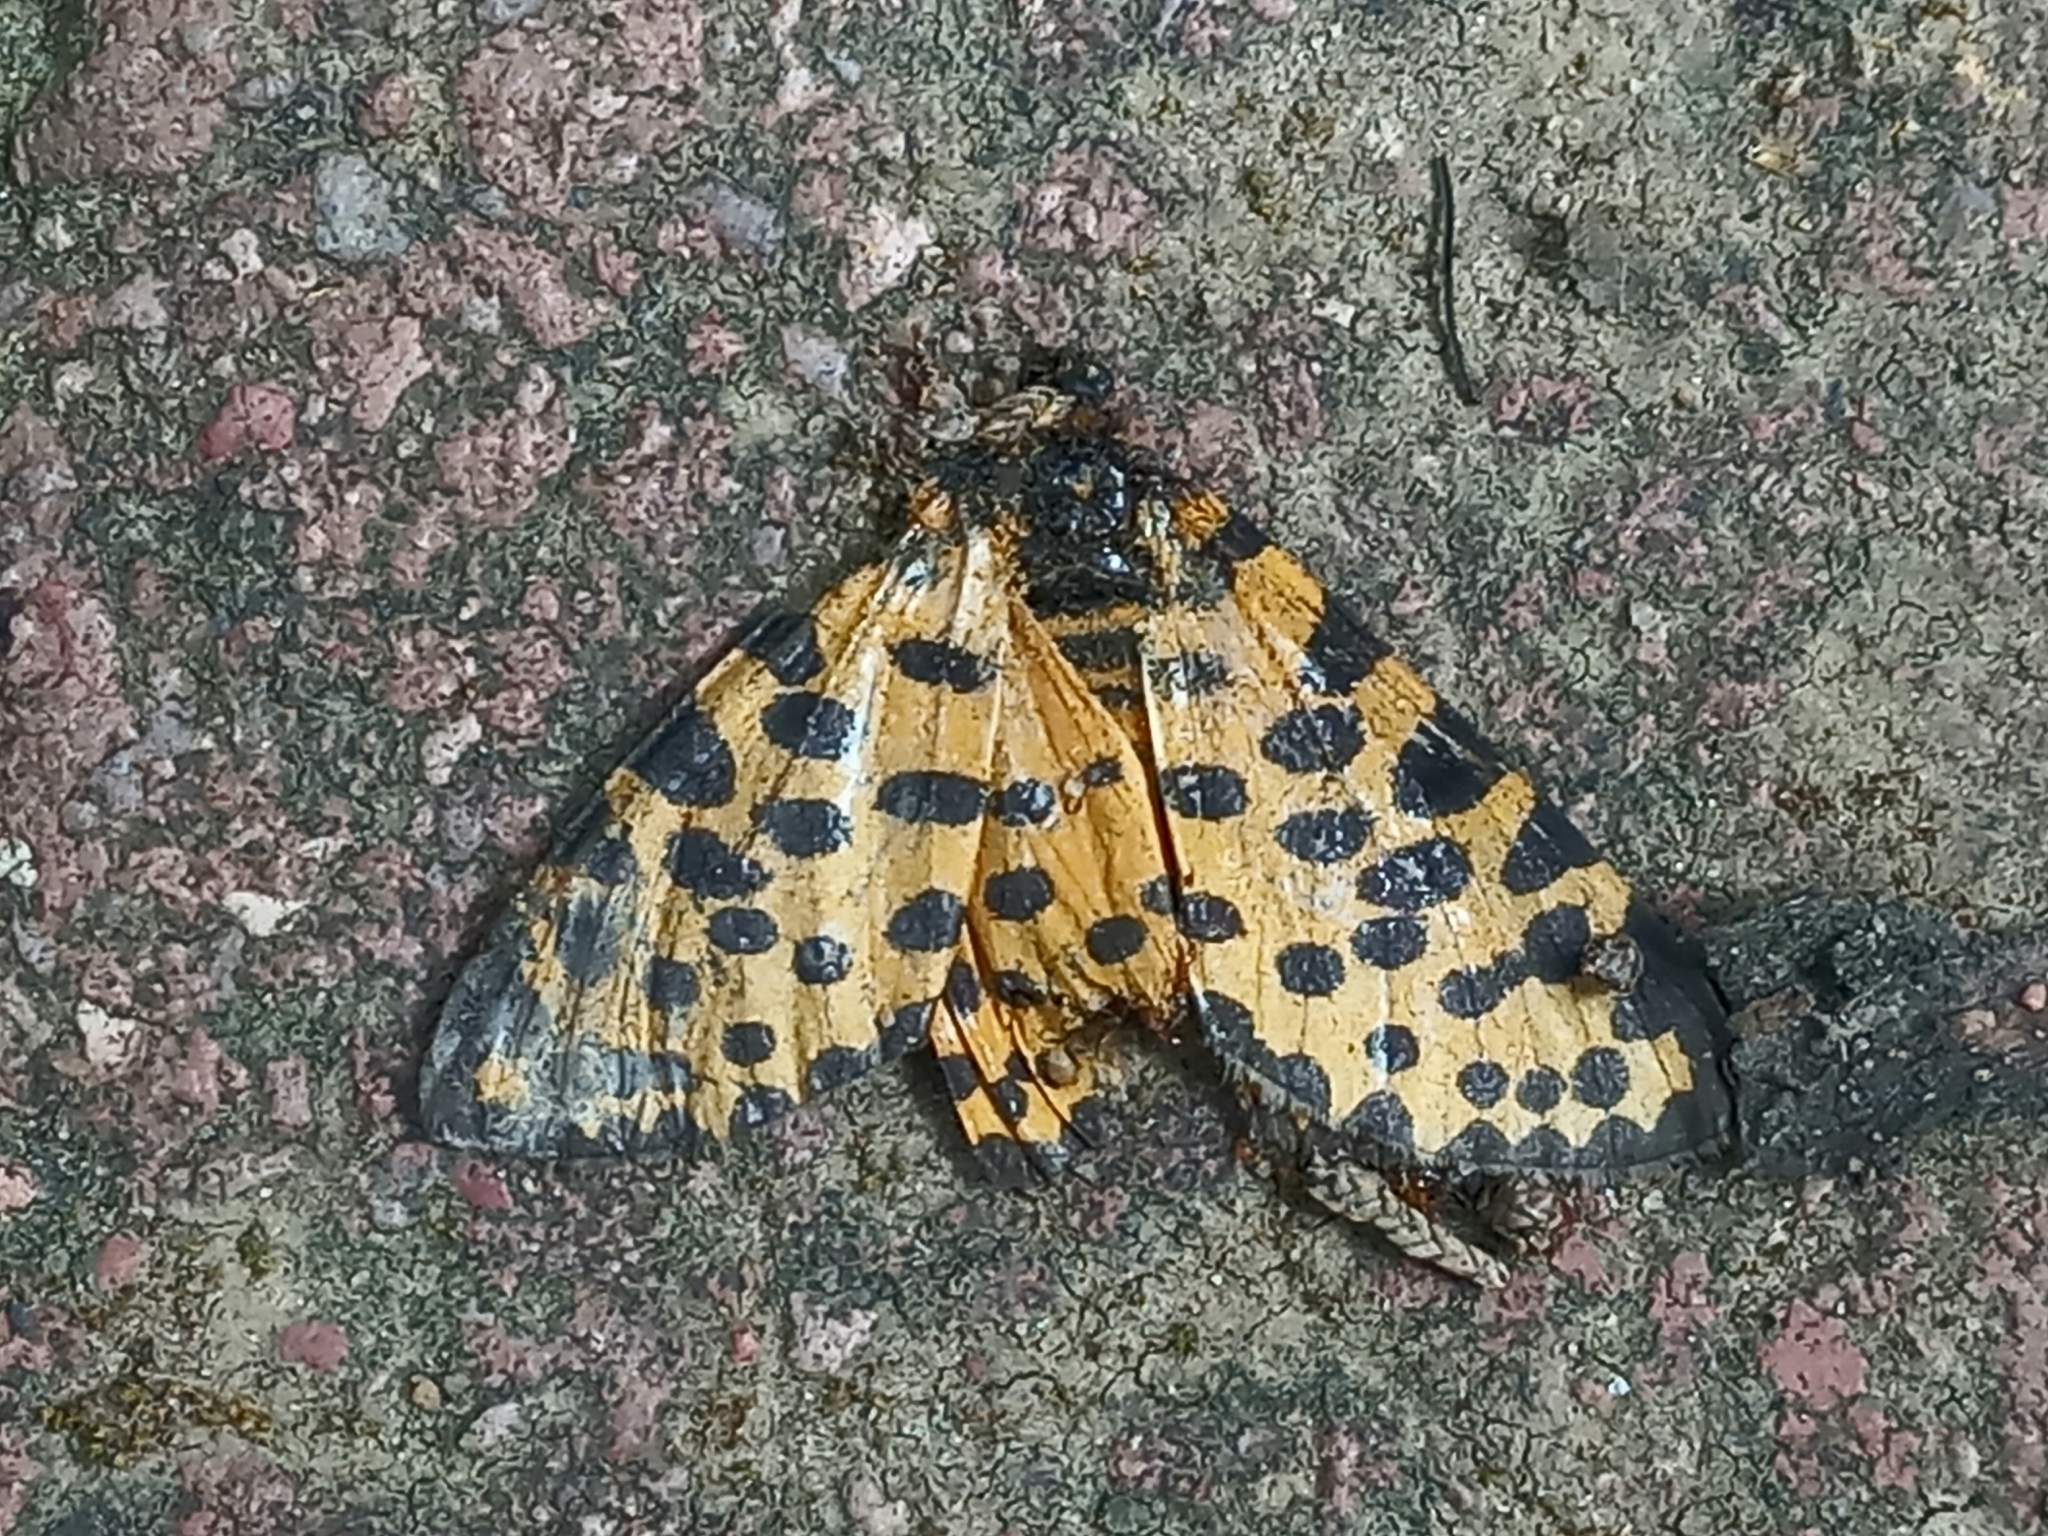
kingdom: Animalia
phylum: Arthropoda
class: Insecta
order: Lepidoptera
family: Geometridae
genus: Zerenopsis
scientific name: Zerenopsis lepida
